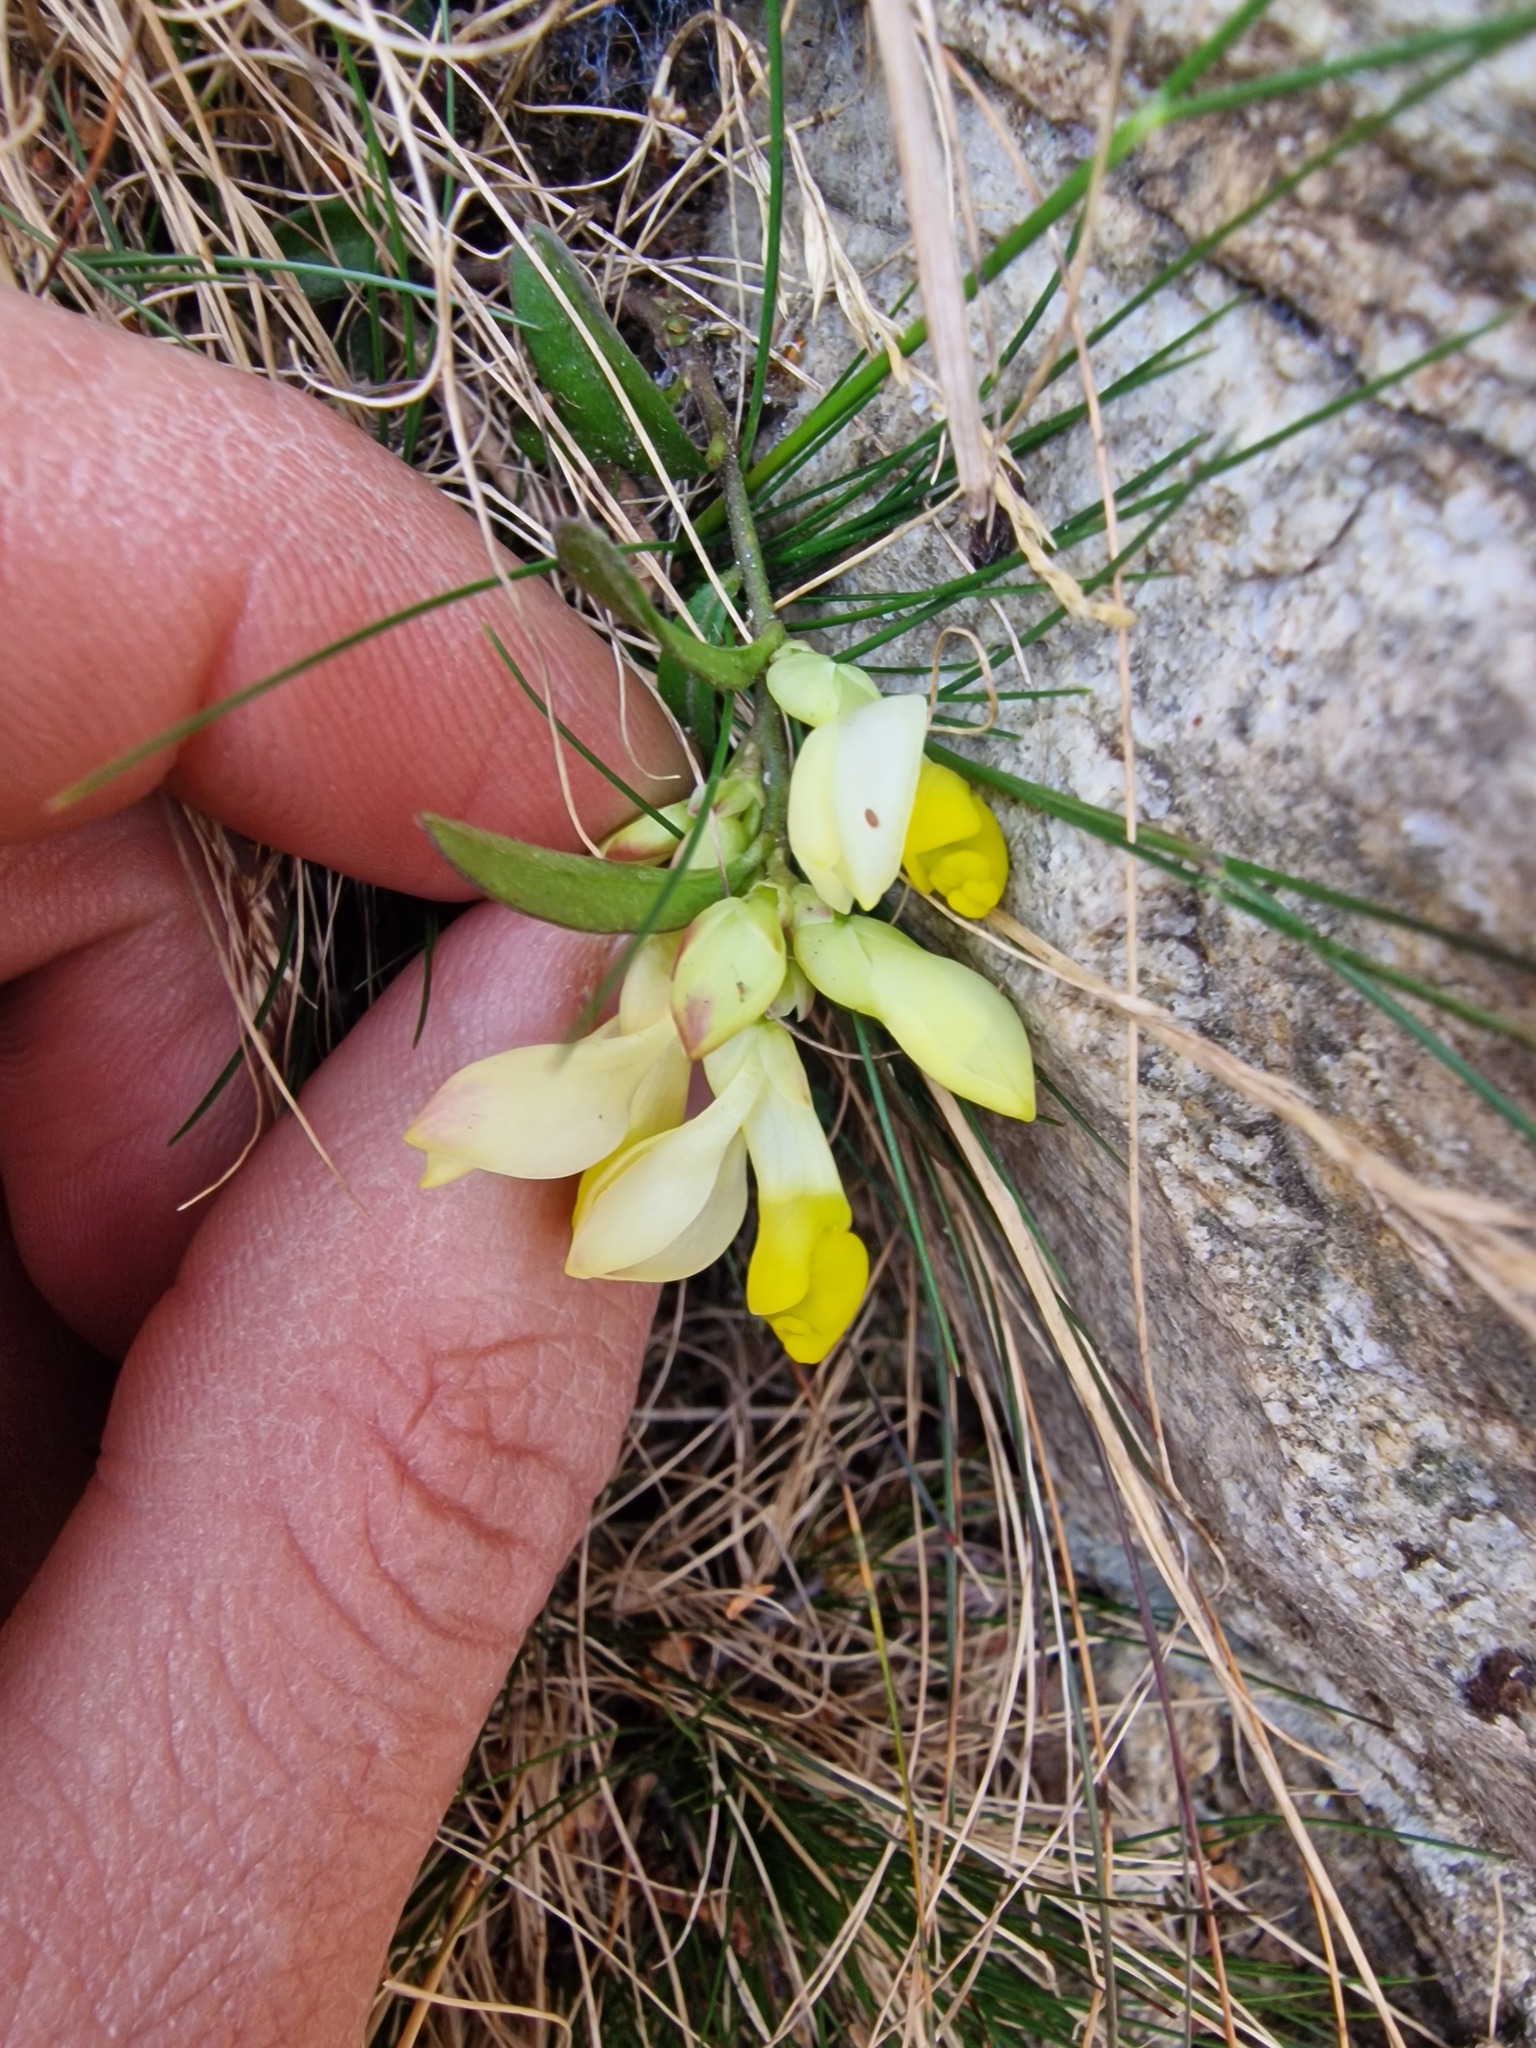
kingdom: Plantae
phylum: Tracheophyta
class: Magnoliopsida
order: Fabales
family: Polygalaceae
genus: Polygaloides
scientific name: Polygaloides chamaebuxus
